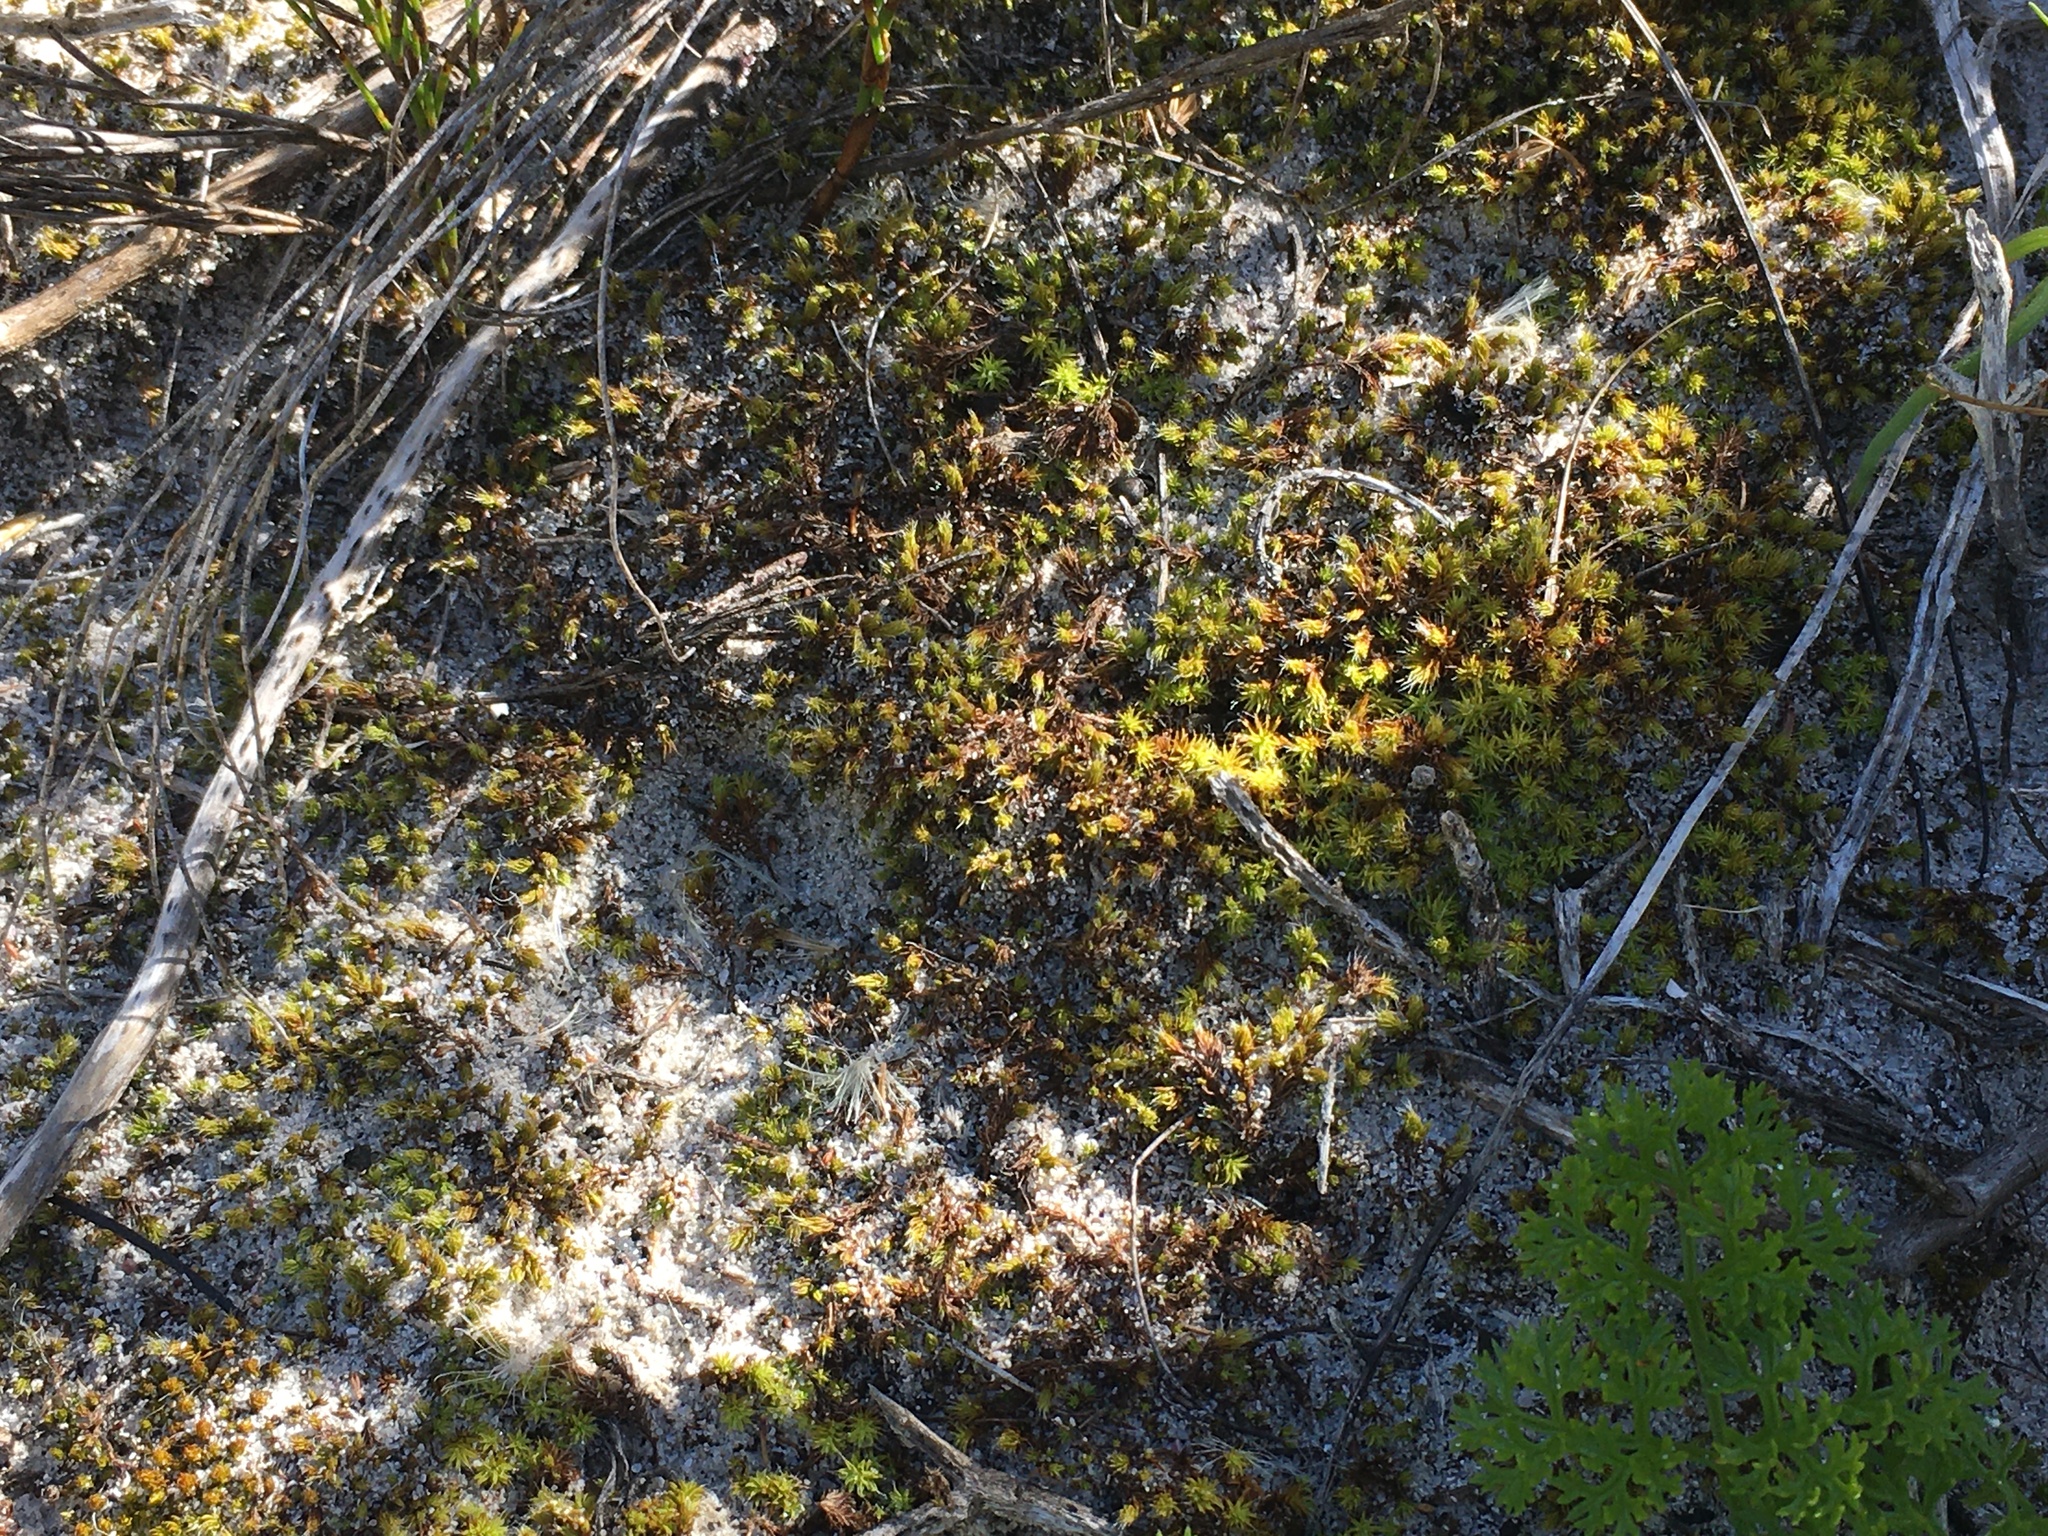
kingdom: Plantae
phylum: Bryophyta
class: Bryopsida
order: Pottiales
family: Pottiaceae
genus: Pseudocrossidium
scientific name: Pseudocrossidium crinitum
